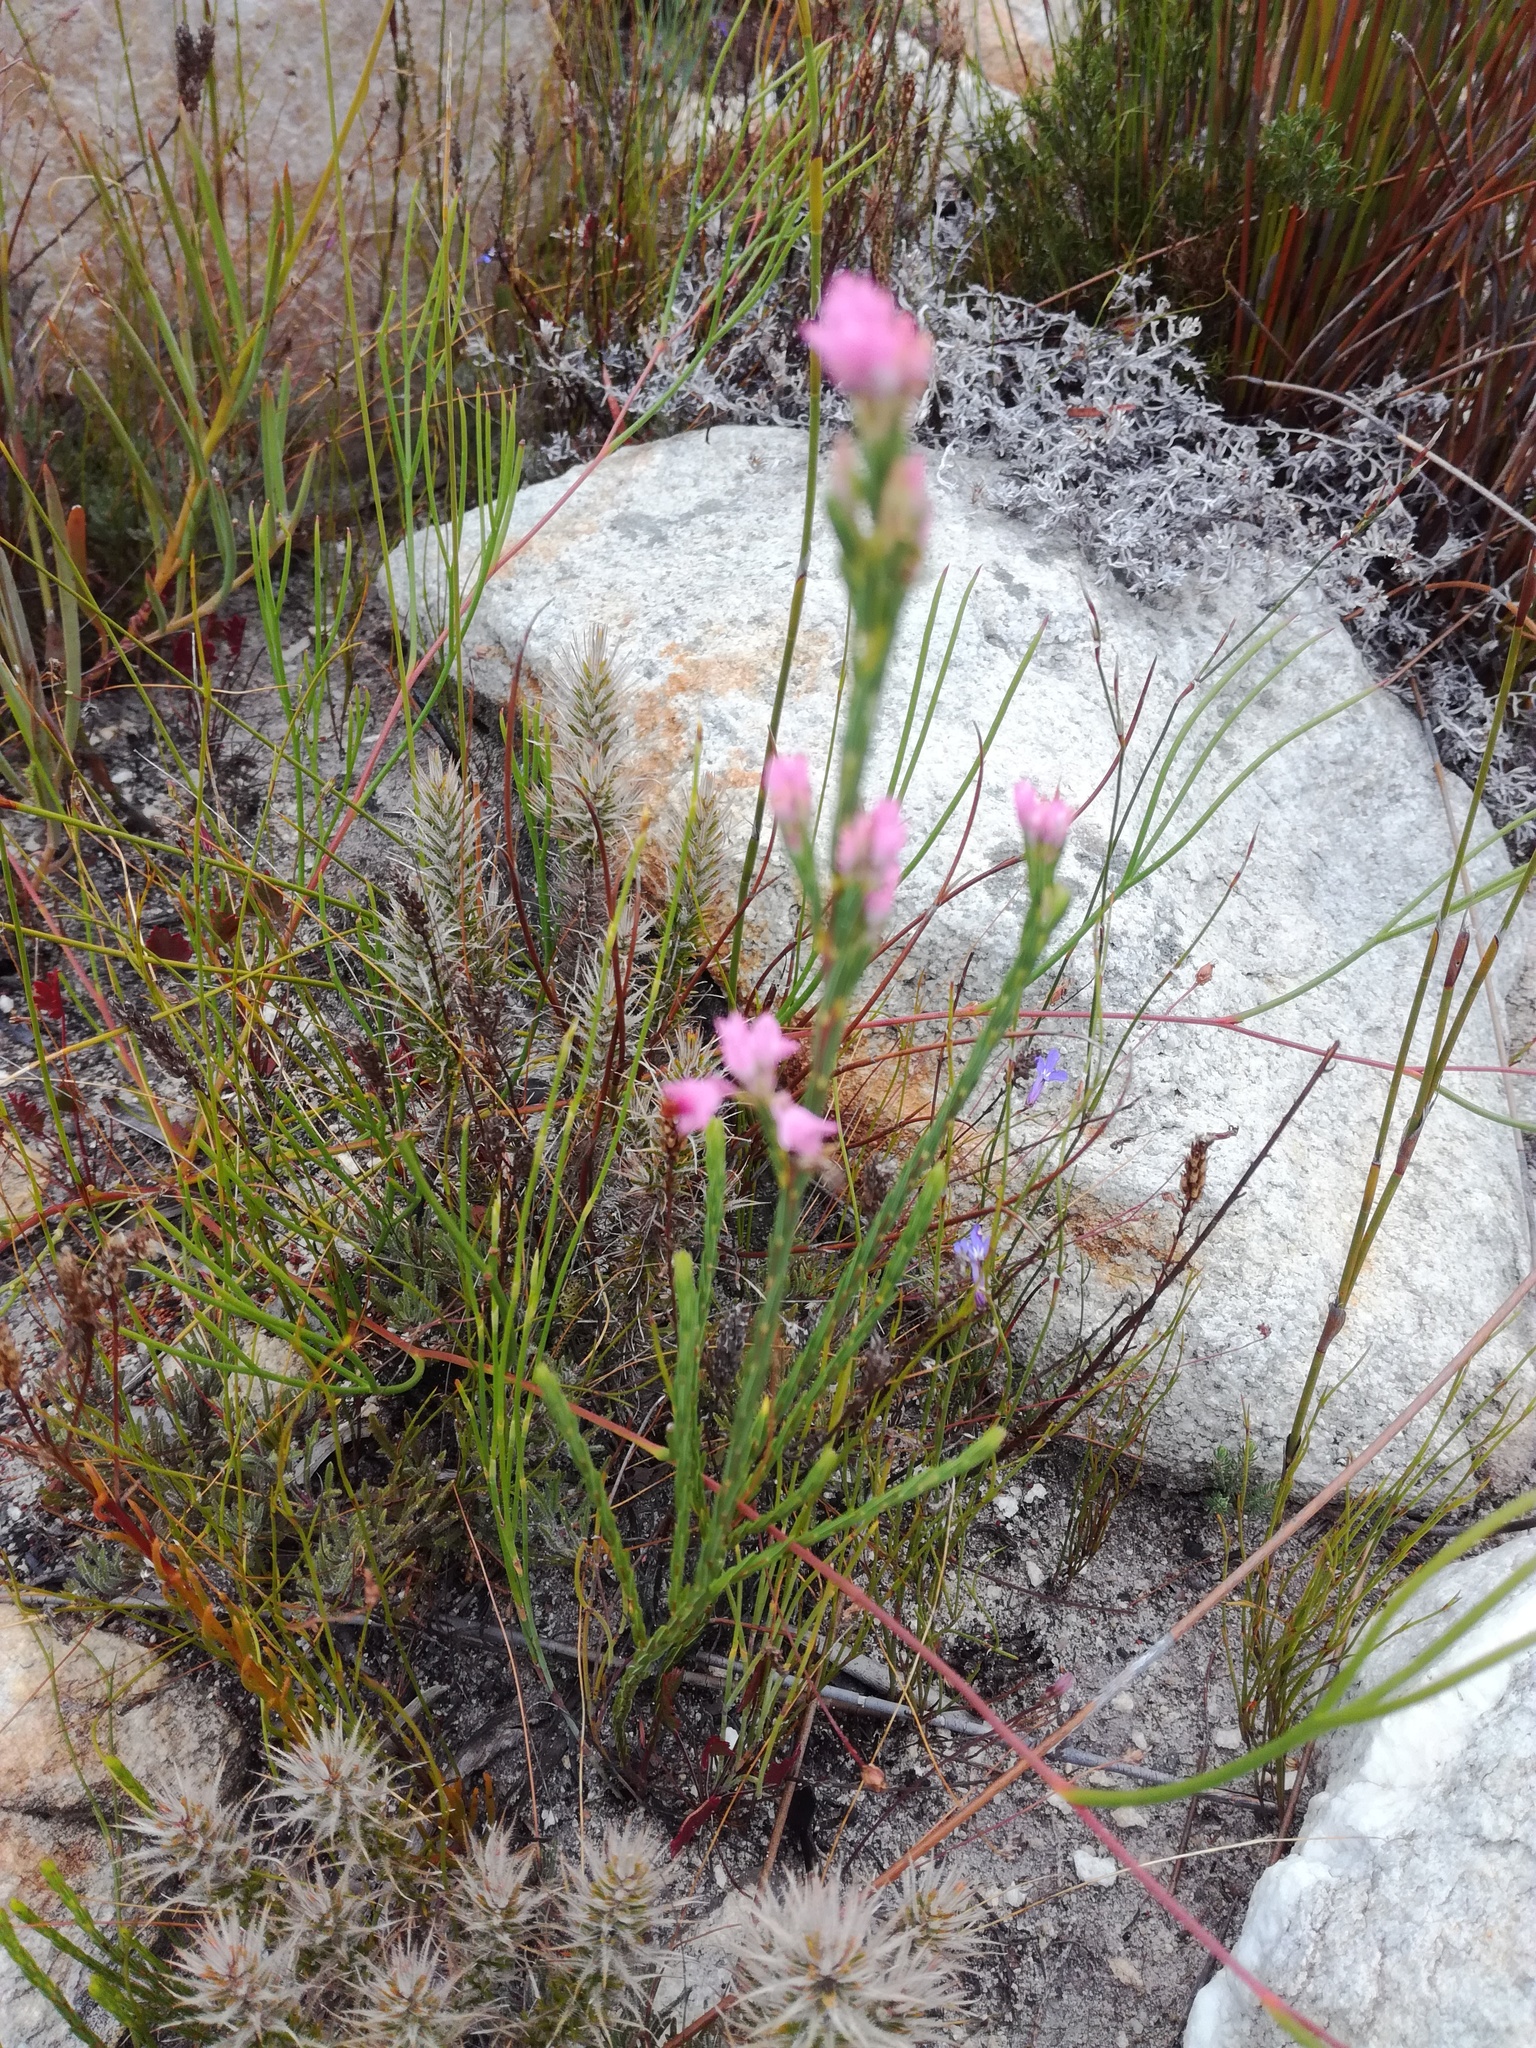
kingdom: Plantae
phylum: Tracheophyta
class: Magnoliopsida
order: Ericales
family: Ericaceae
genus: Erica
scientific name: Erica corifolia
